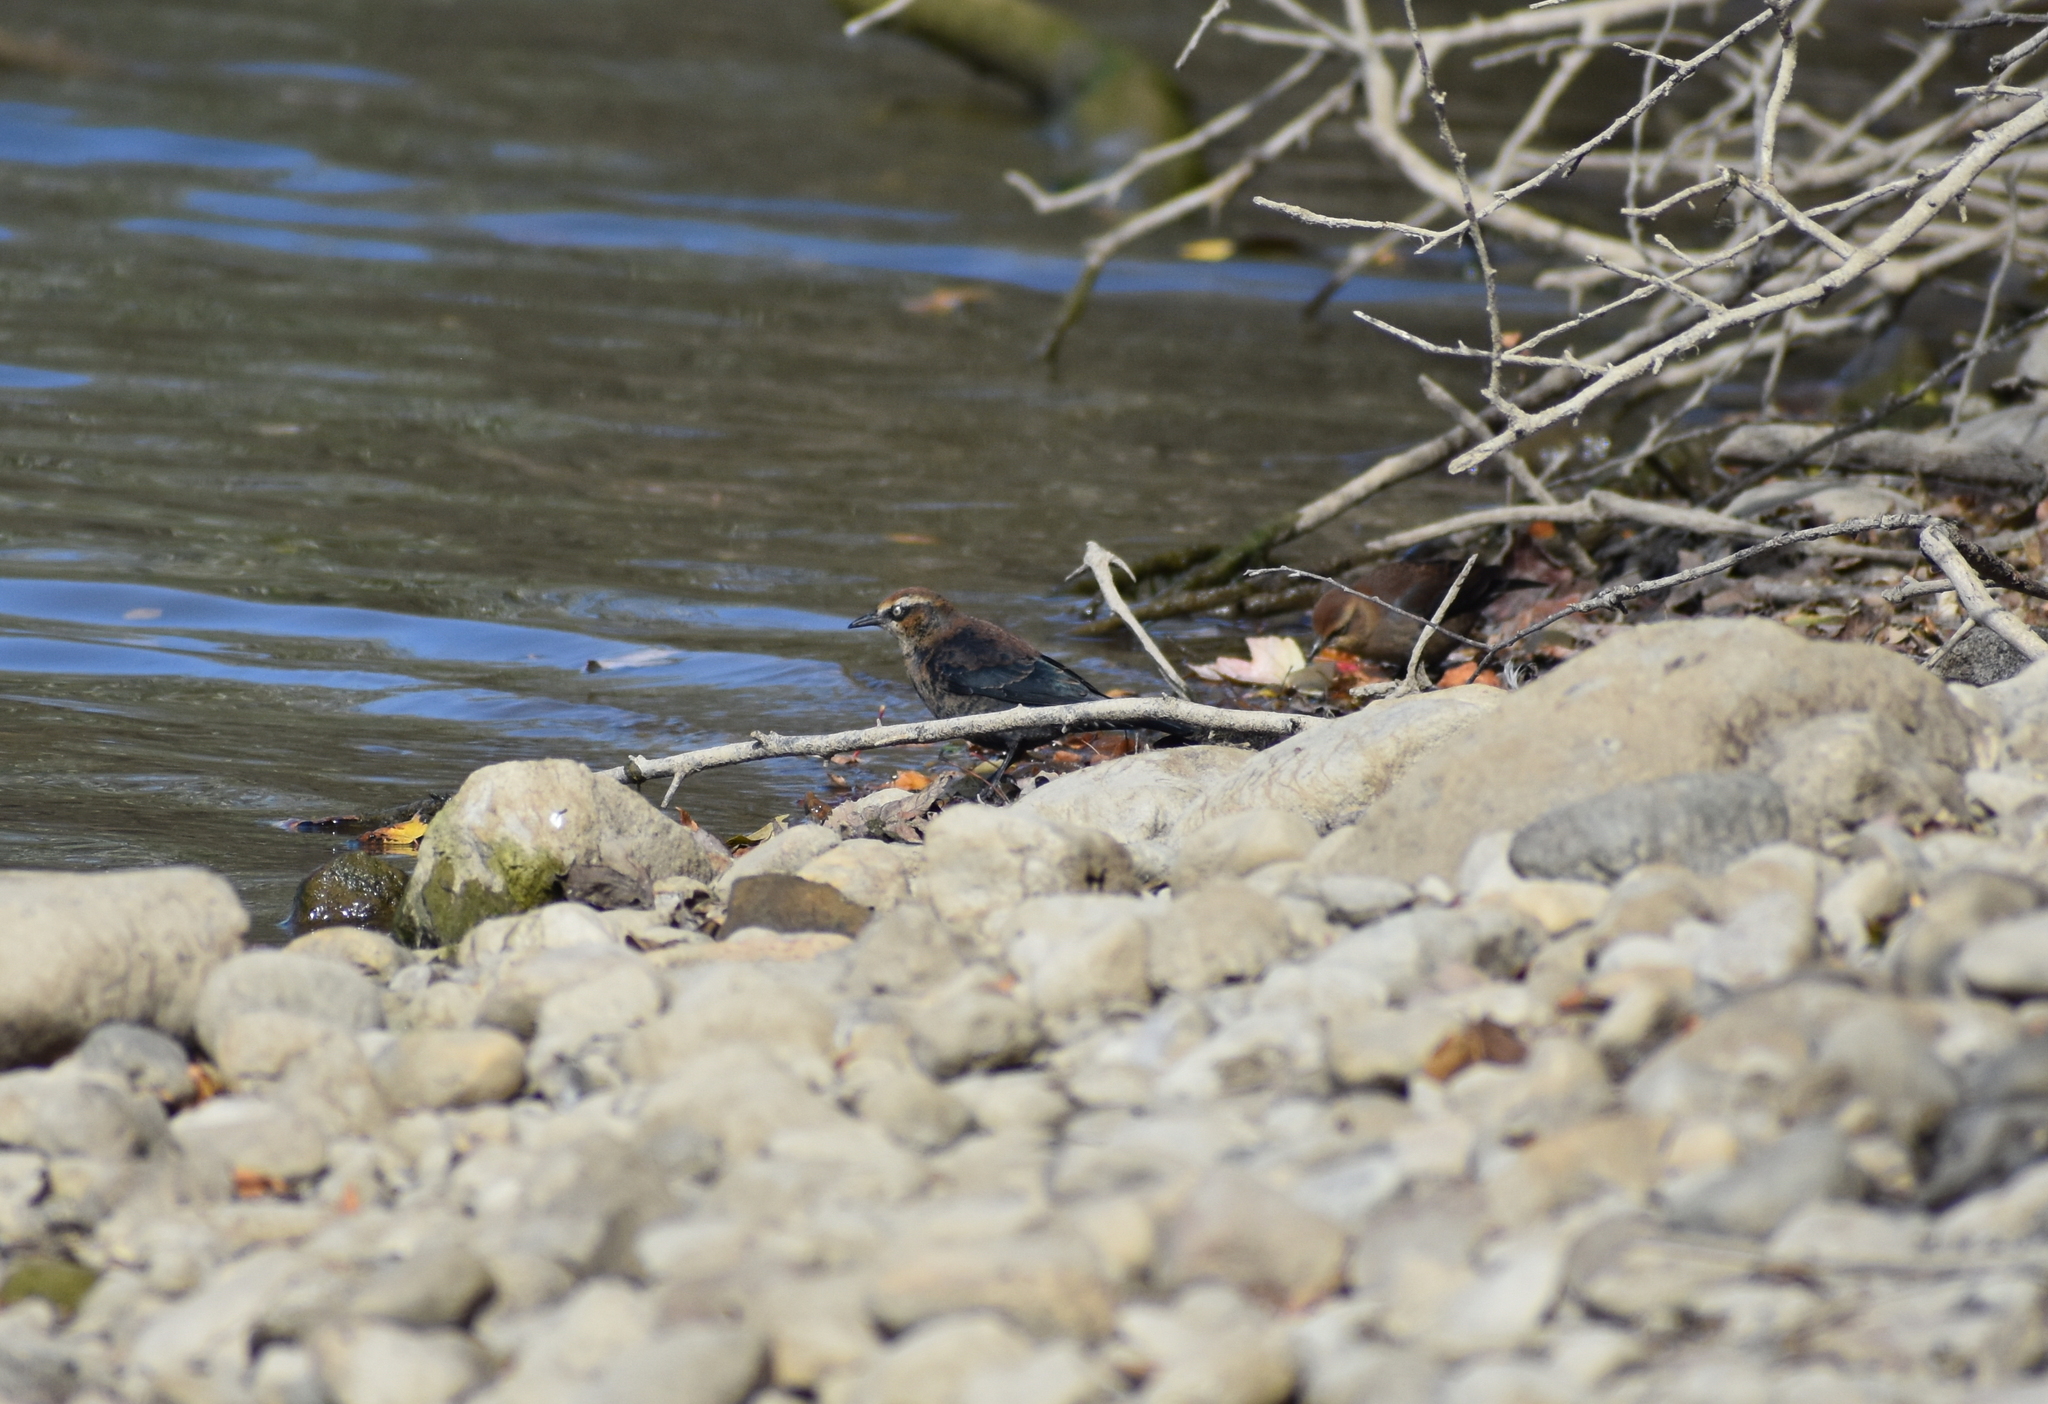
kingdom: Animalia
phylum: Chordata
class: Aves
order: Passeriformes
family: Icteridae
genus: Euphagus
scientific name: Euphagus carolinus
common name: Rusty blackbird
